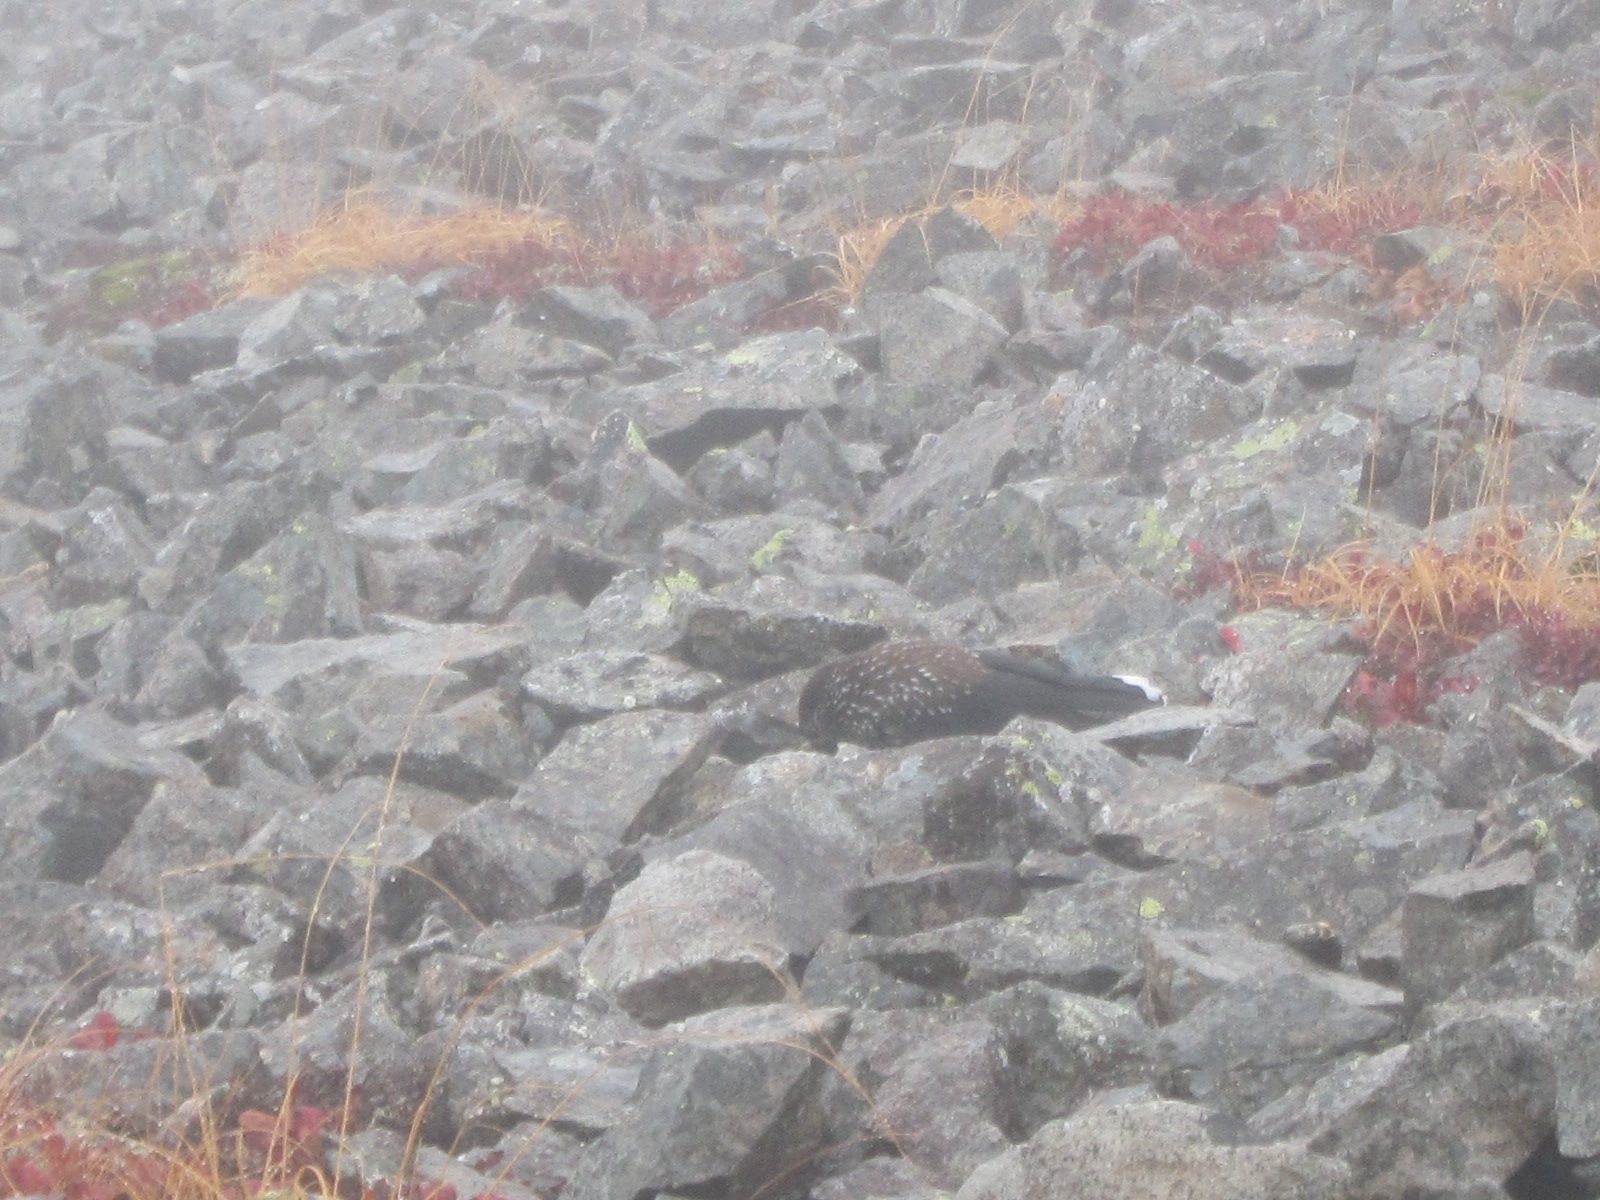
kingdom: Animalia
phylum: Chordata
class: Aves
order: Passeriformes
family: Corvidae
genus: Nucifraga
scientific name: Nucifraga caryocatactes
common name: Spotted nutcracker
